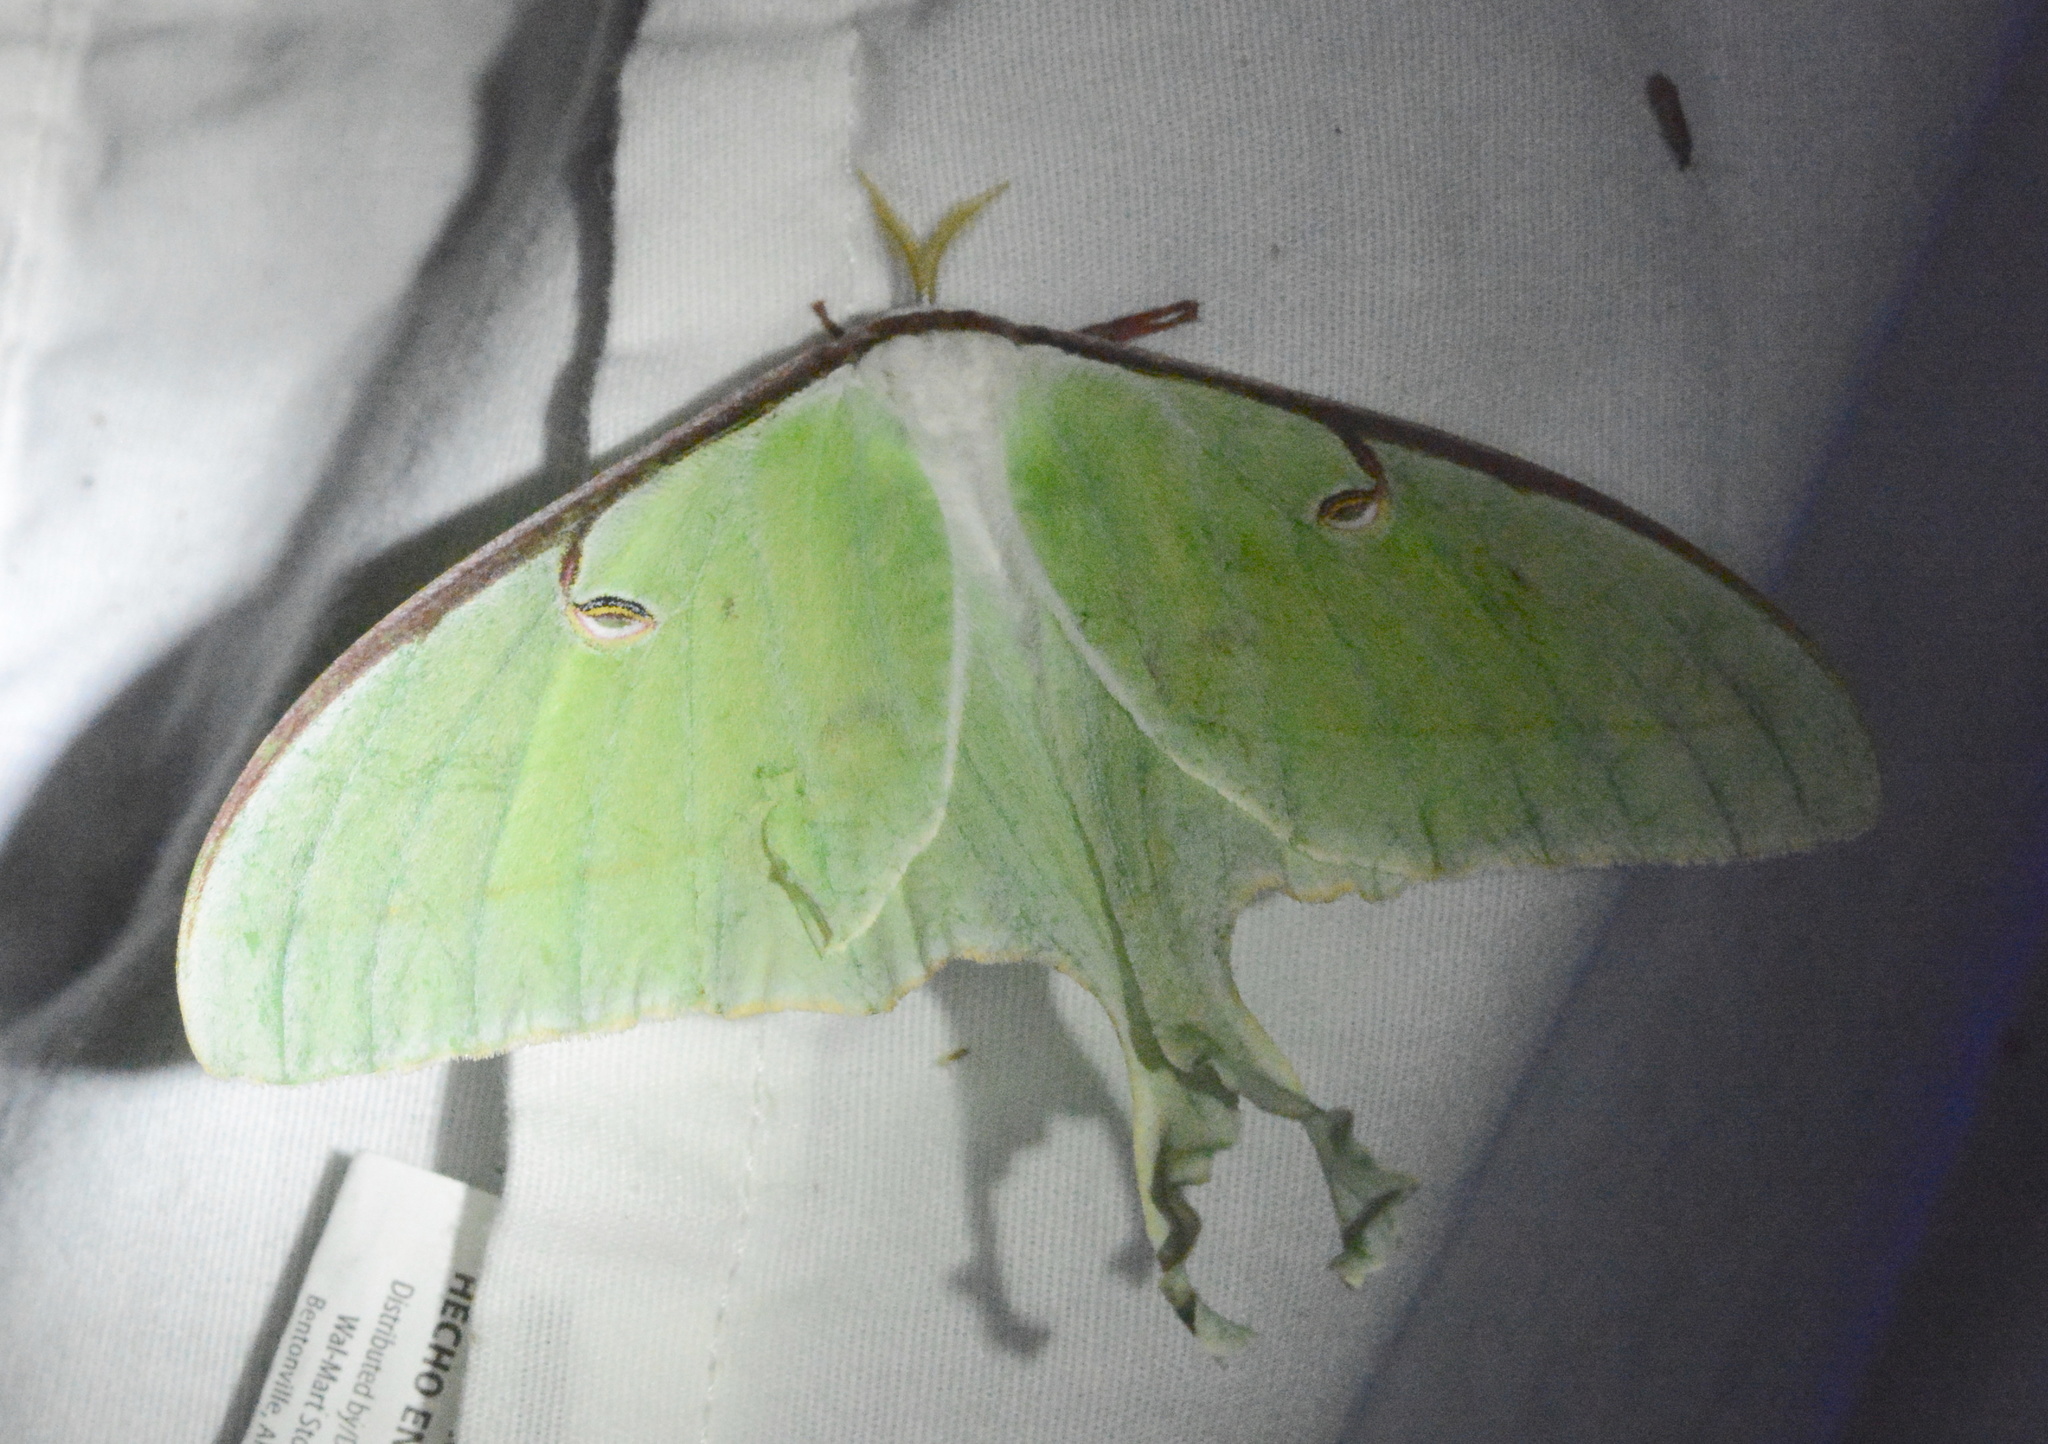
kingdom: Animalia
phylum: Arthropoda
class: Insecta
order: Lepidoptera
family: Saturniidae
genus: Actias
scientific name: Actias luna
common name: Luna moth
